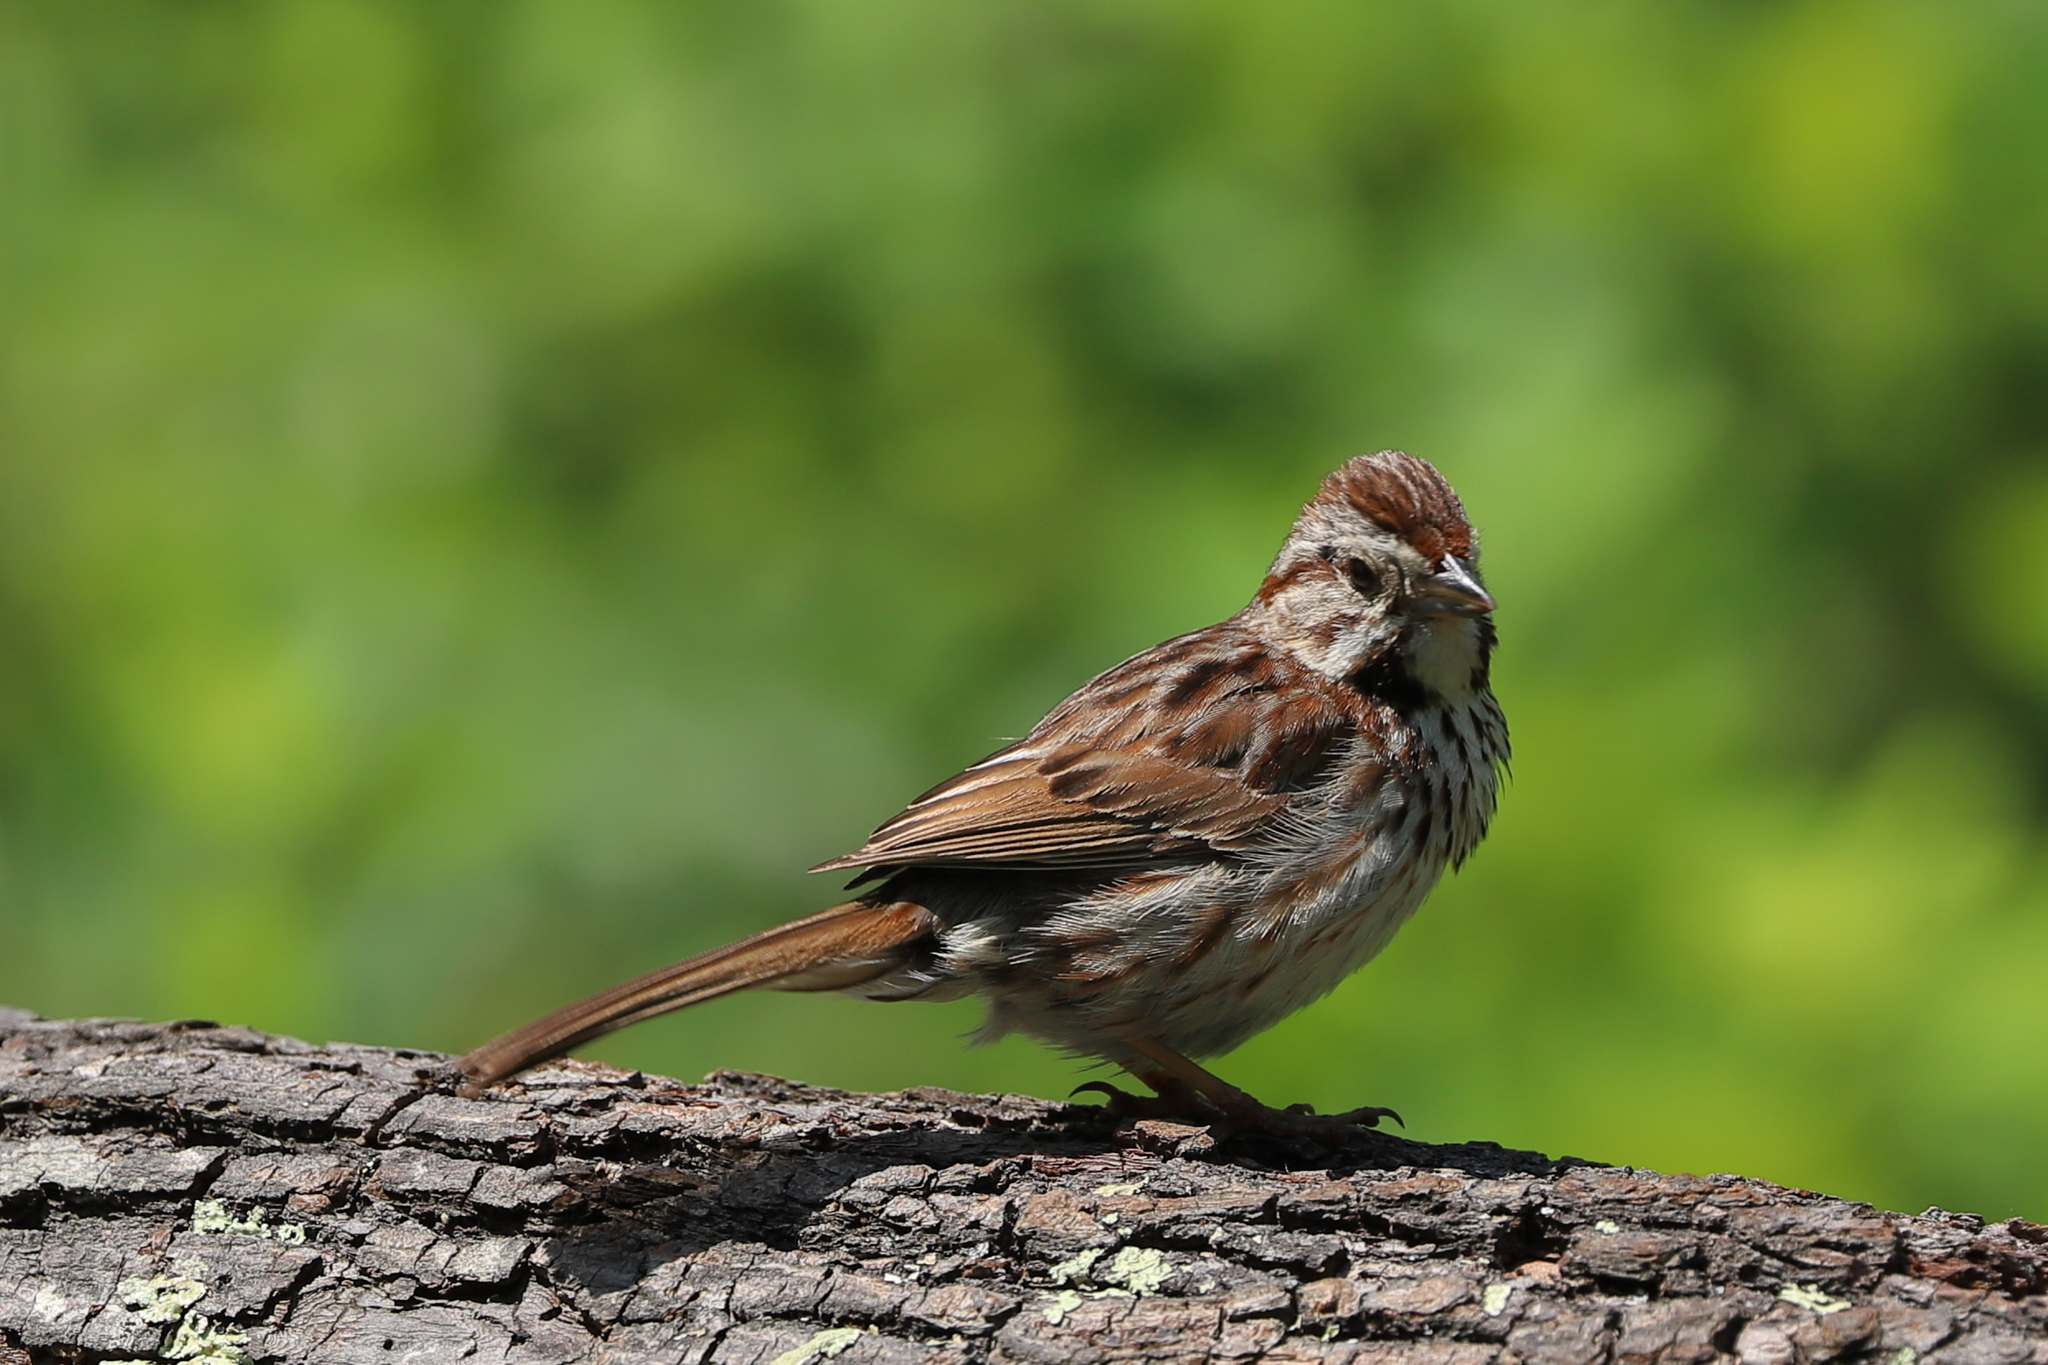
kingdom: Animalia
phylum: Chordata
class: Aves
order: Passeriformes
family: Passerellidae
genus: Melospiza
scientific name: Melospiza melodia
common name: Song sparrow
